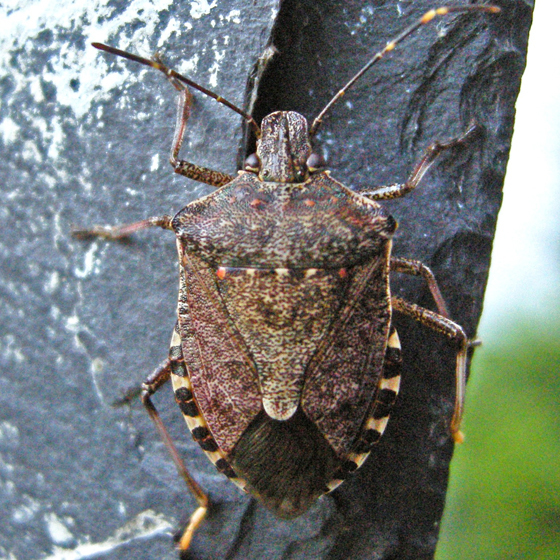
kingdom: Animalia
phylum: Arthropoda
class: Insecta
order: Hemiptera
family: Pentatomidae
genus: Halyomorpha
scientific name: Halyomorpha halys
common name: Brown marmorated stink bug
